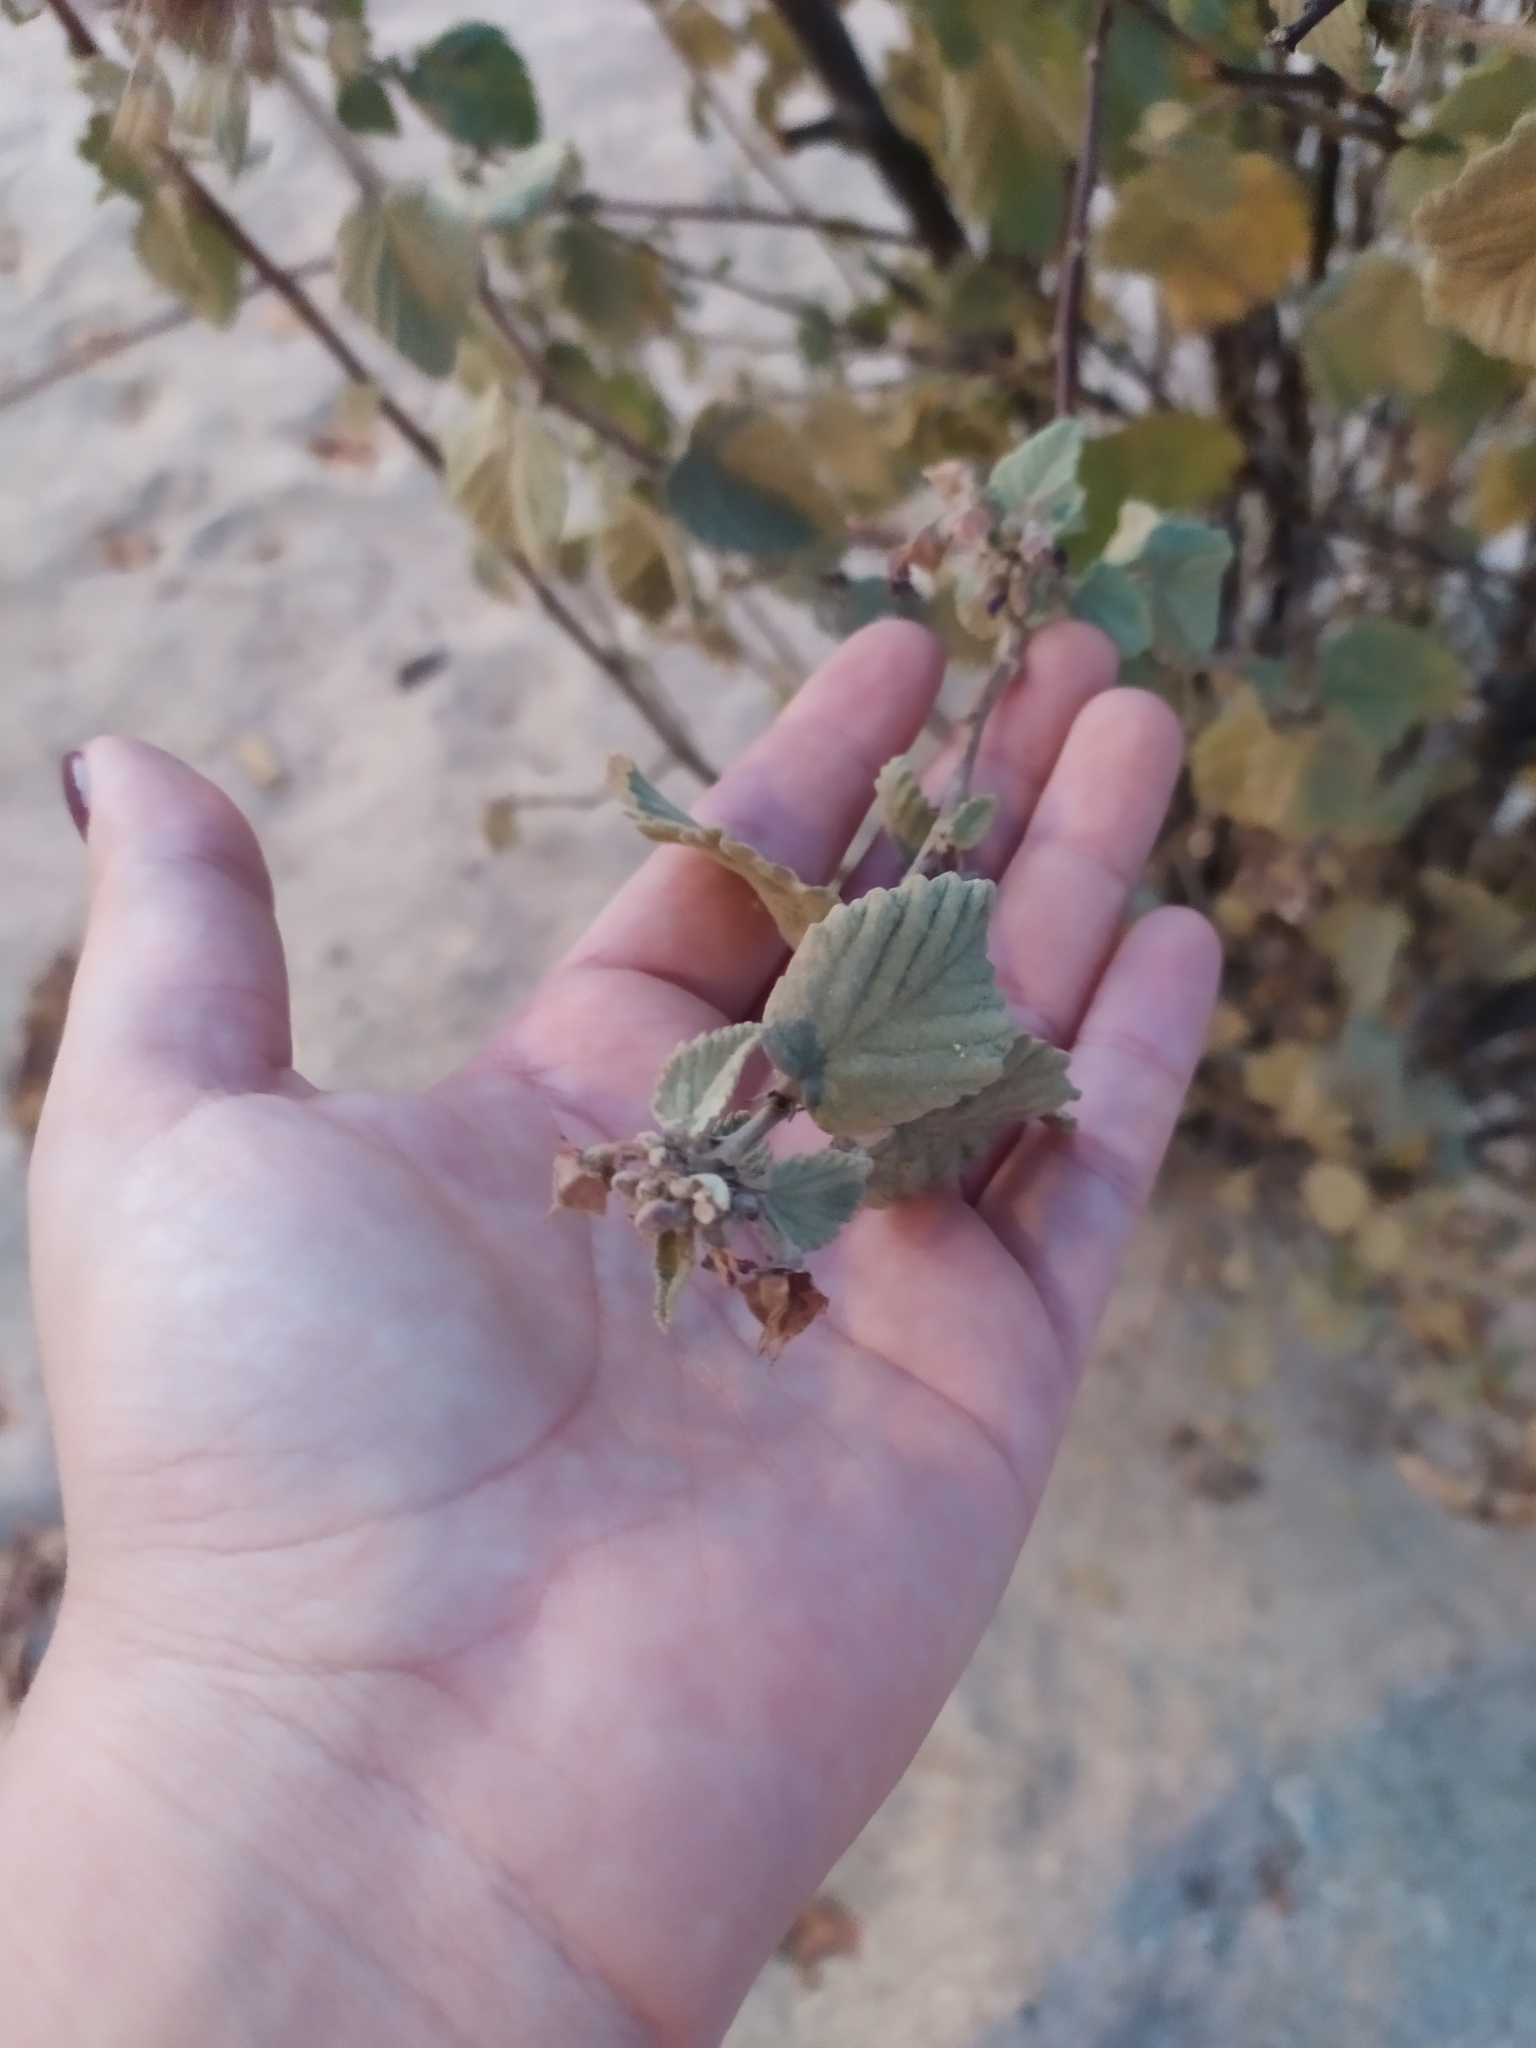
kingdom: Plantae
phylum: Tracheophyta
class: Magnoliopsida
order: Malvales
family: Malvaceae
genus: Melochia
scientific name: Melochia tomentosa
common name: Black torch
